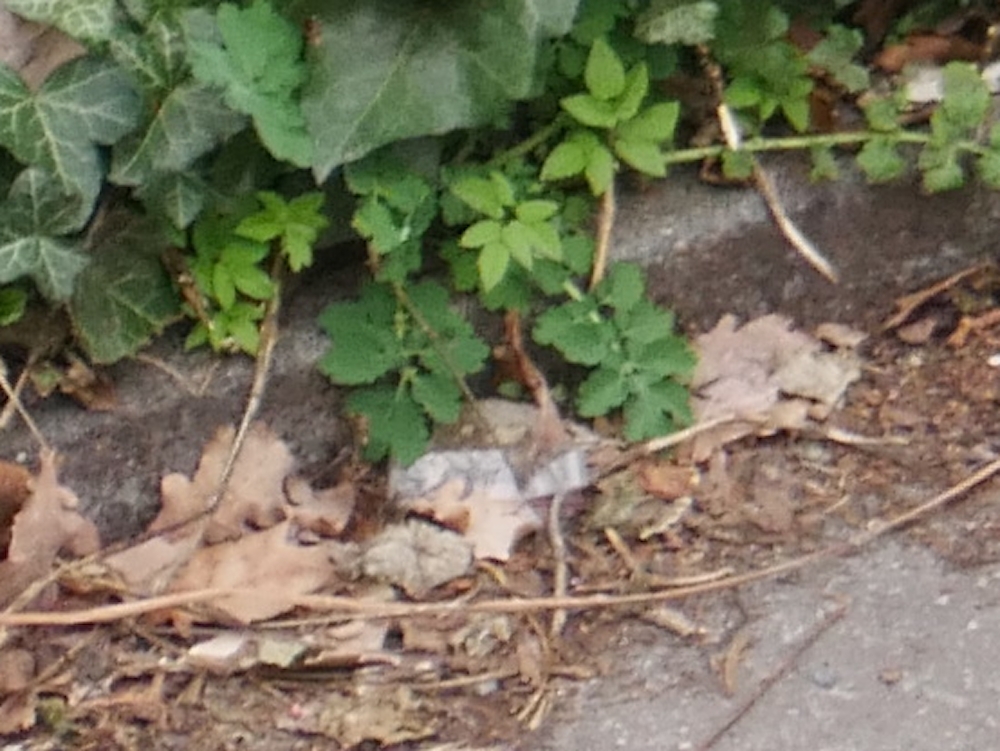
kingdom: Plantae
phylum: Tracheophyta
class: Magnoliopsida
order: Ranunculales
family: Papaveraceae
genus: Chelidonium
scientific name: Chelidonium majus
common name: Greater celandine
